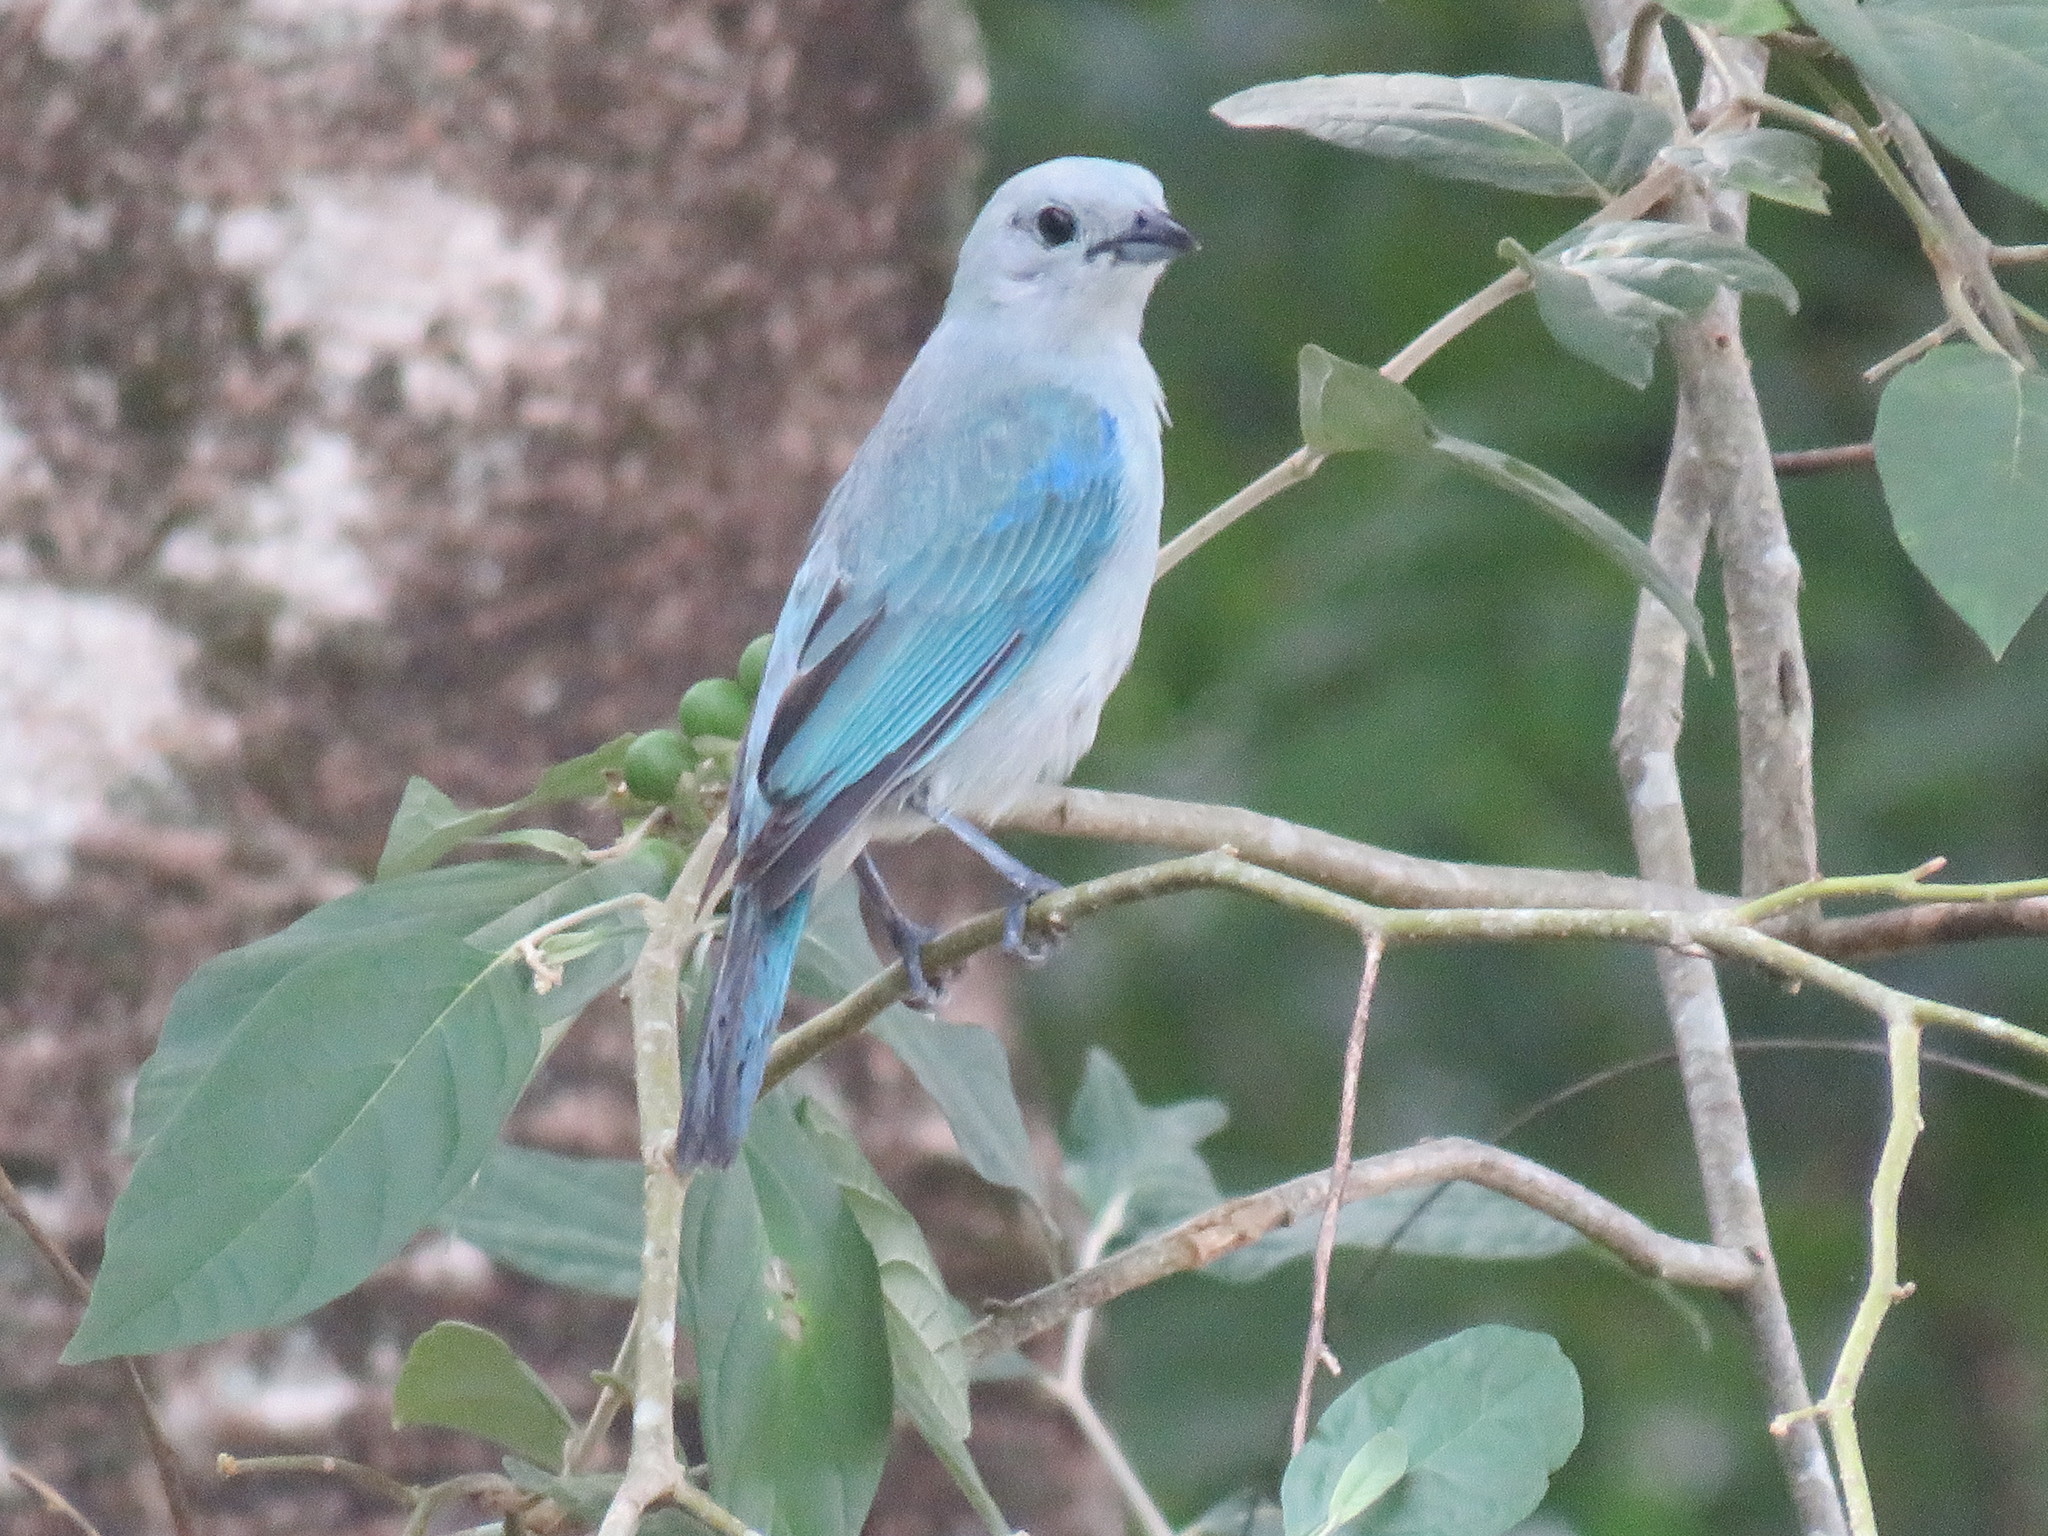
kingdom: Animalia
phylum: Chordata
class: Aves
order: Passeriformes
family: Thraupidae
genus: Thraupis
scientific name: Thraupis episcopus
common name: Blue-grey tanager
